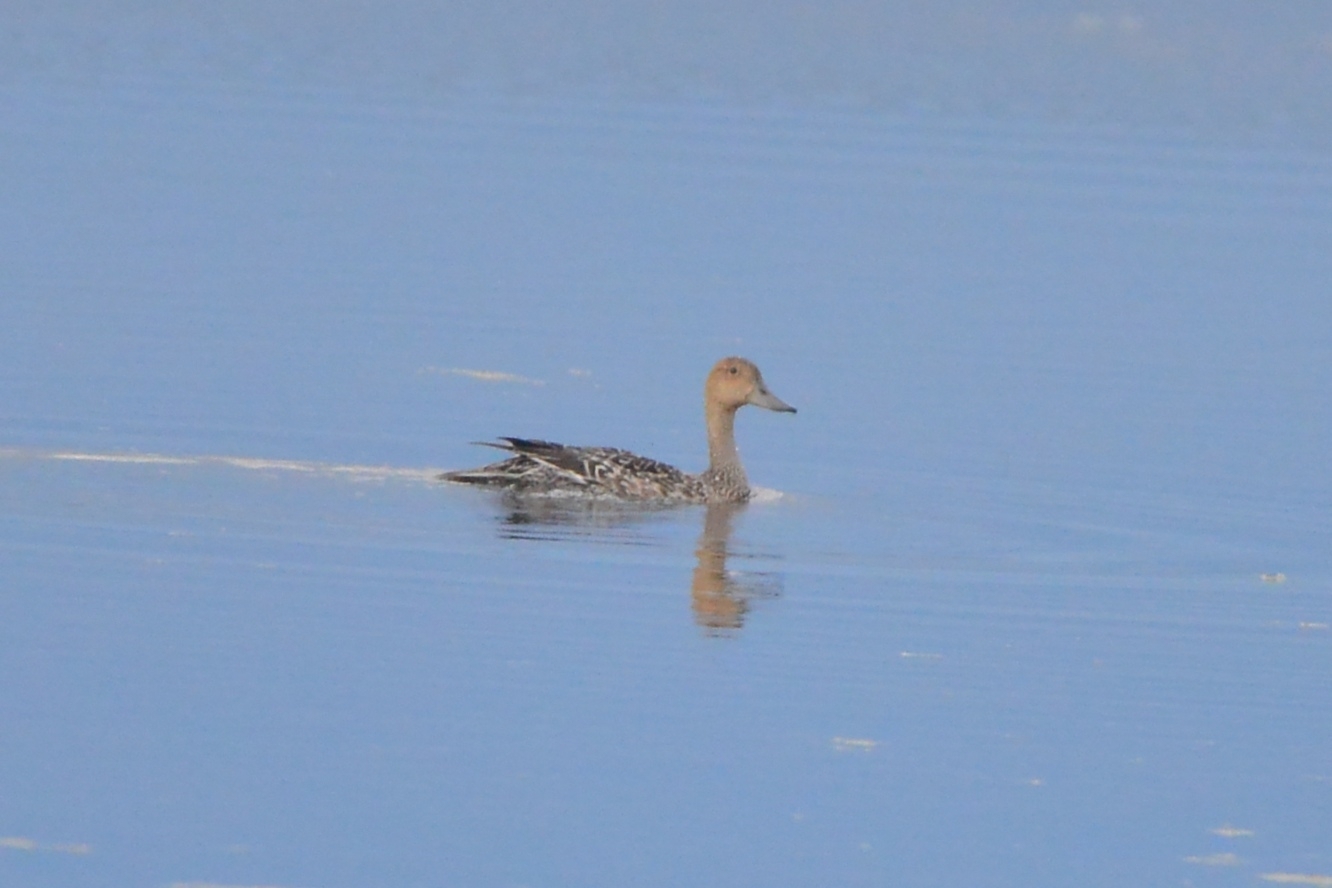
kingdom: Animalia
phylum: Chordata
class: Aves
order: Anseriformes
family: Anatidae
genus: Anas
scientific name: Anas acuta
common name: Northern pintail
